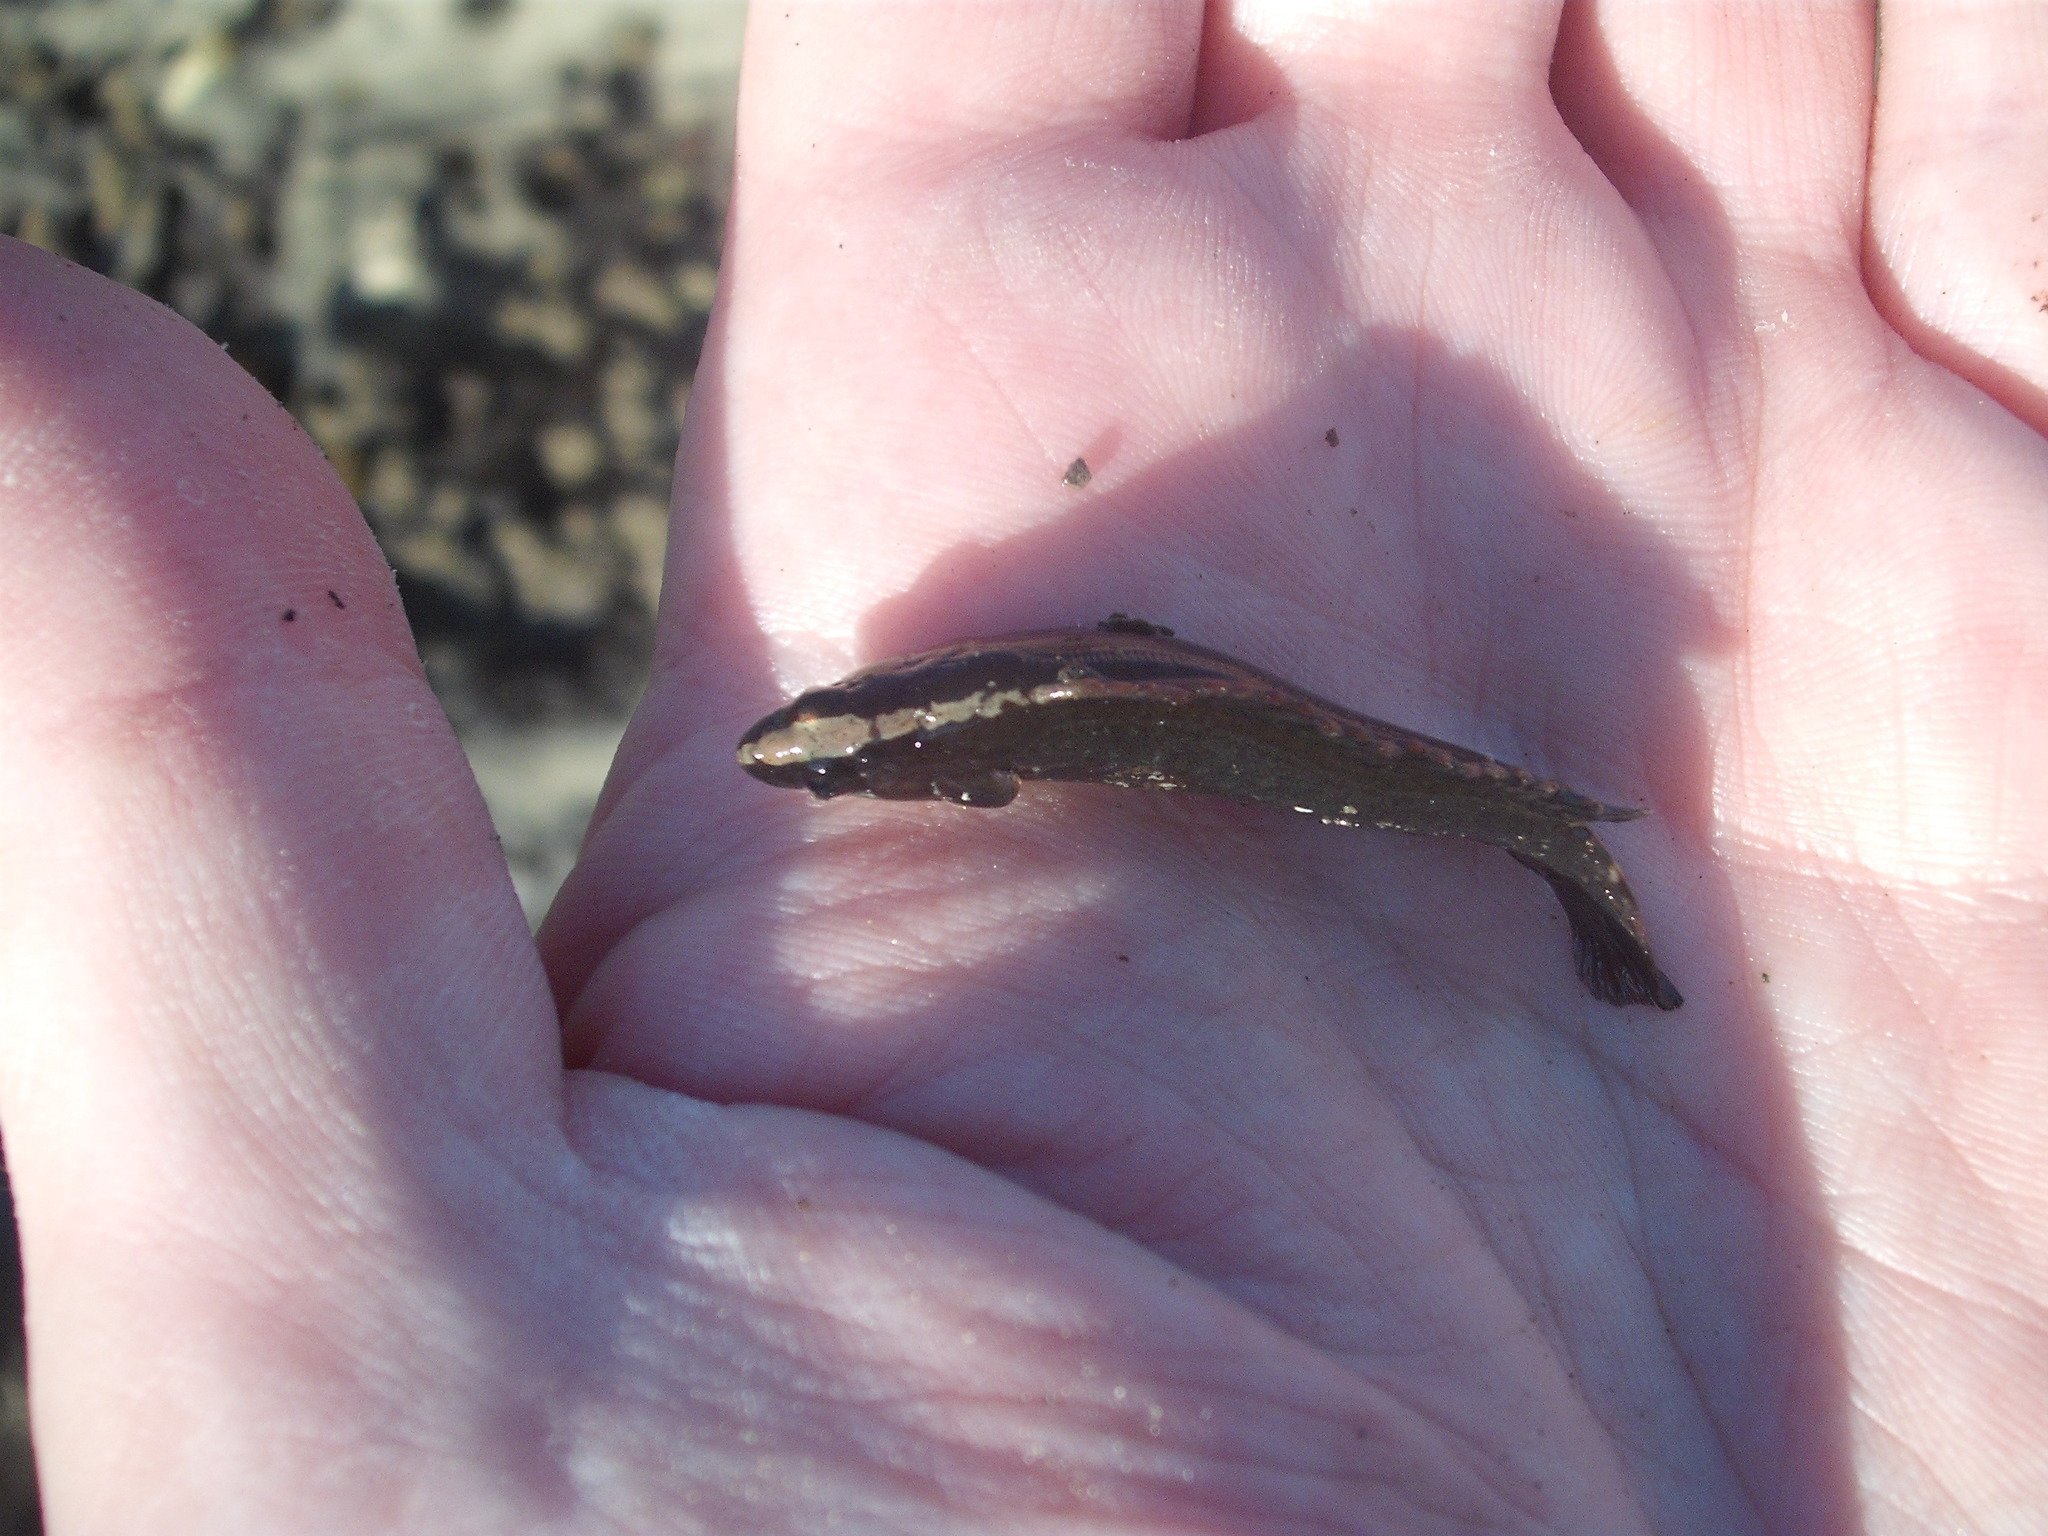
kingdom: Animalia
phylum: Chordata
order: Perciformes
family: Plesiopidae
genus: Acanthoclinus
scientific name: Acanthoclinus fuscus
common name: Olive rockfish
